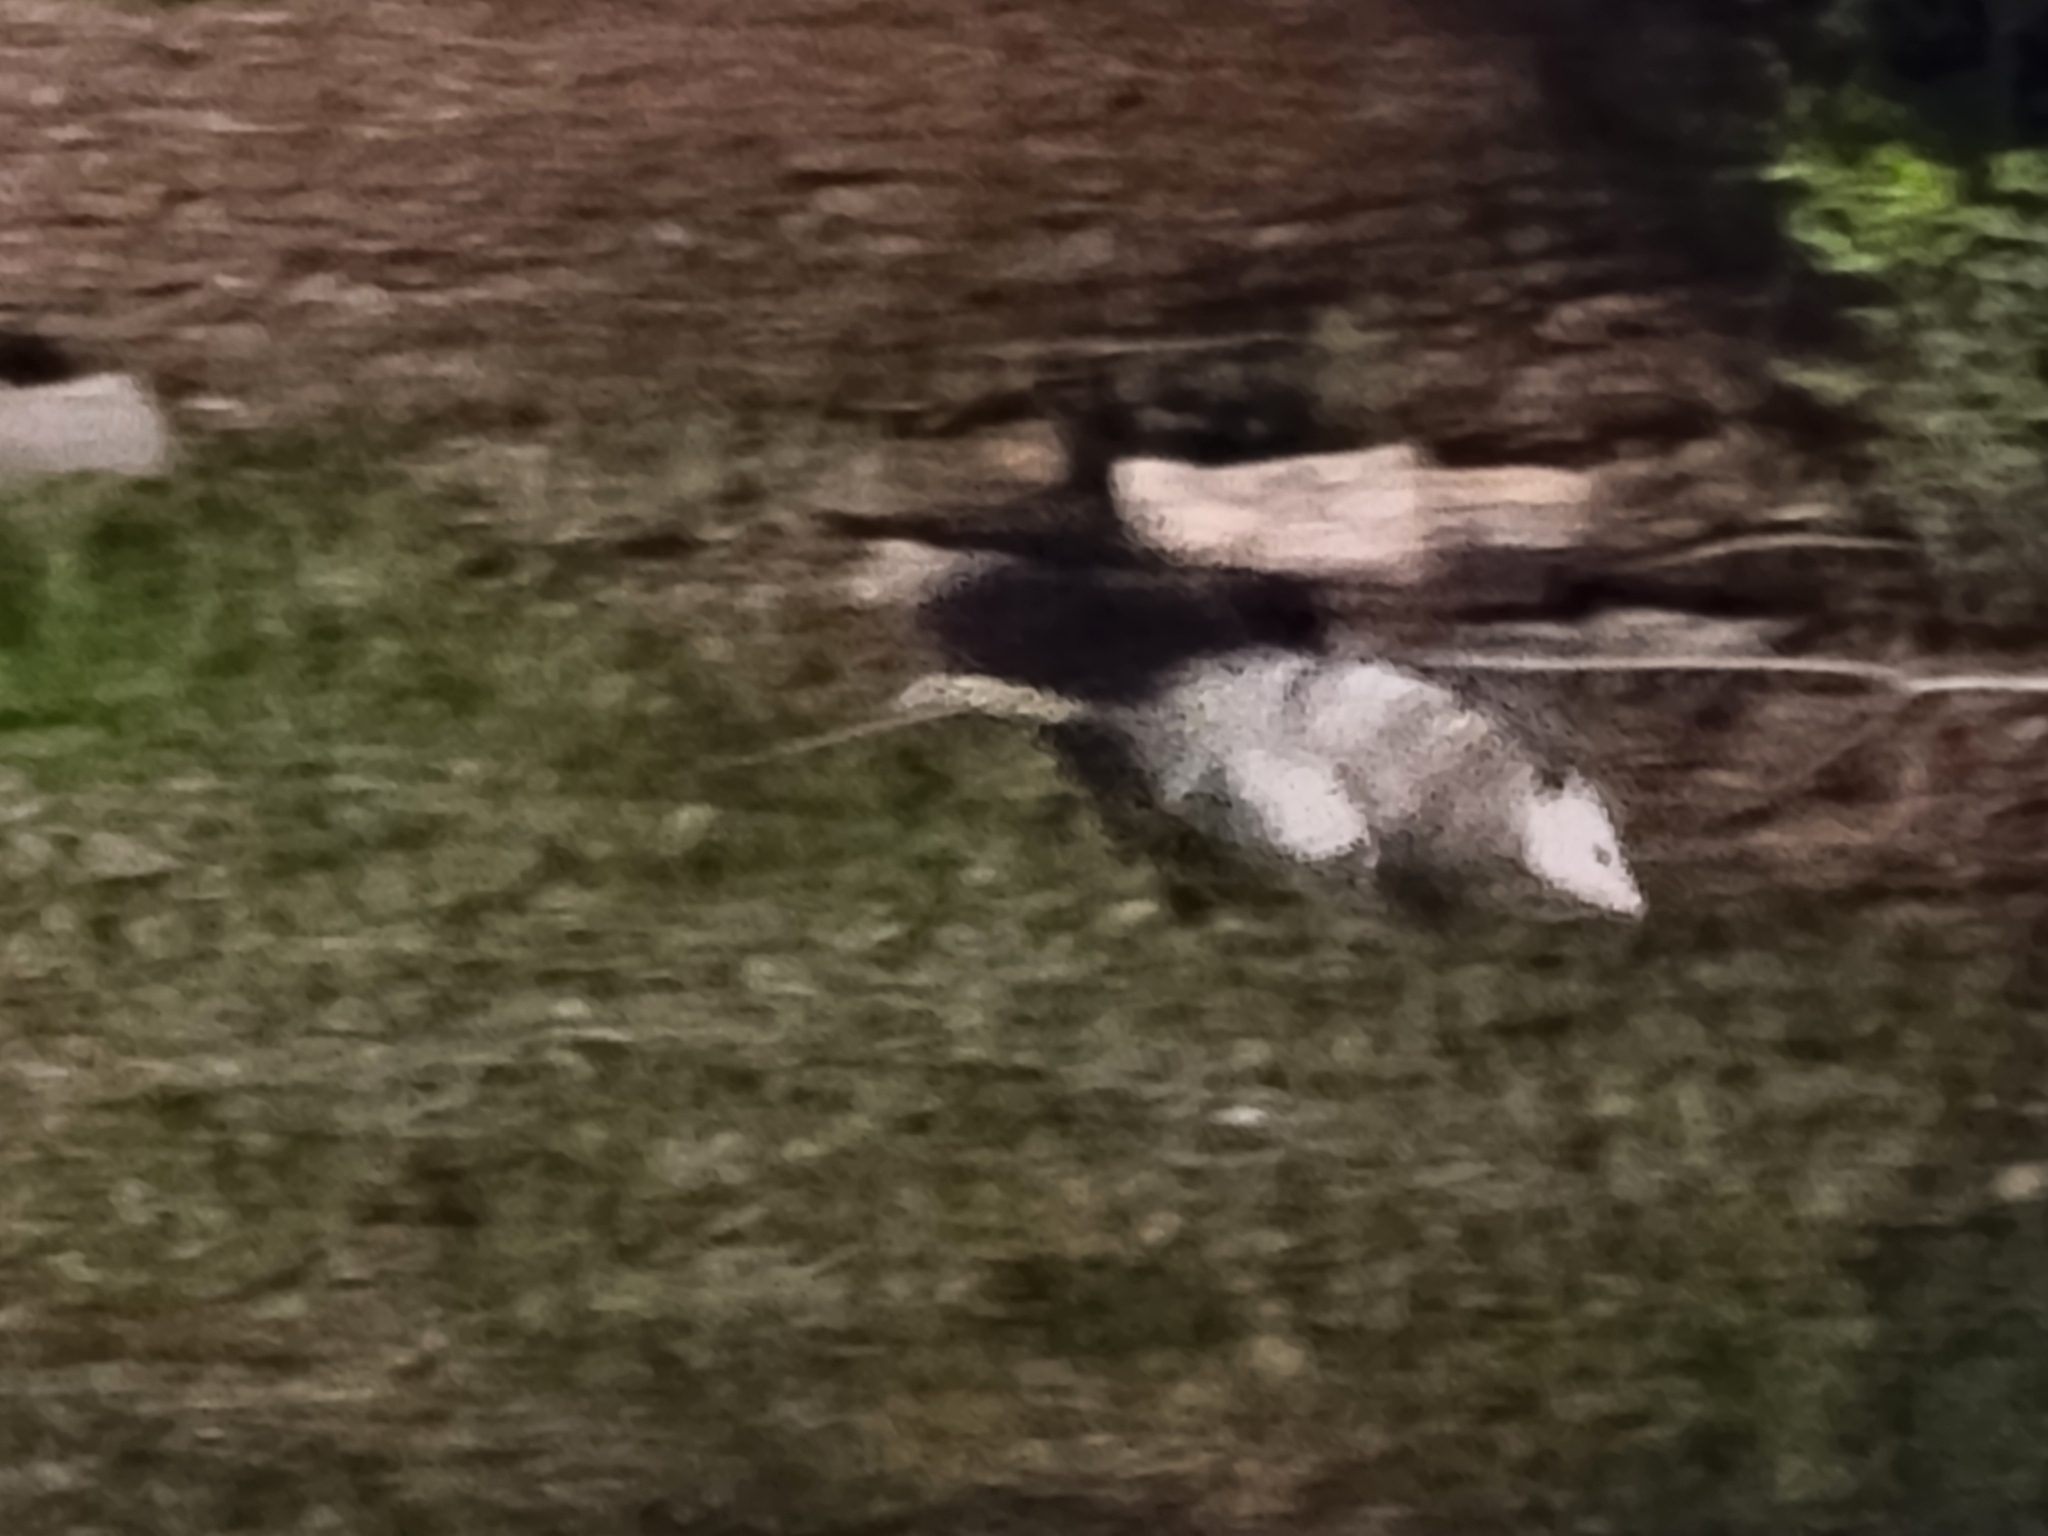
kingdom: Animalia
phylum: Chordata
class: Mammalia
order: Didelphimorphia
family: Didelphidae
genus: Didelphis
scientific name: Didelphis virginiana
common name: Virginia opossum
